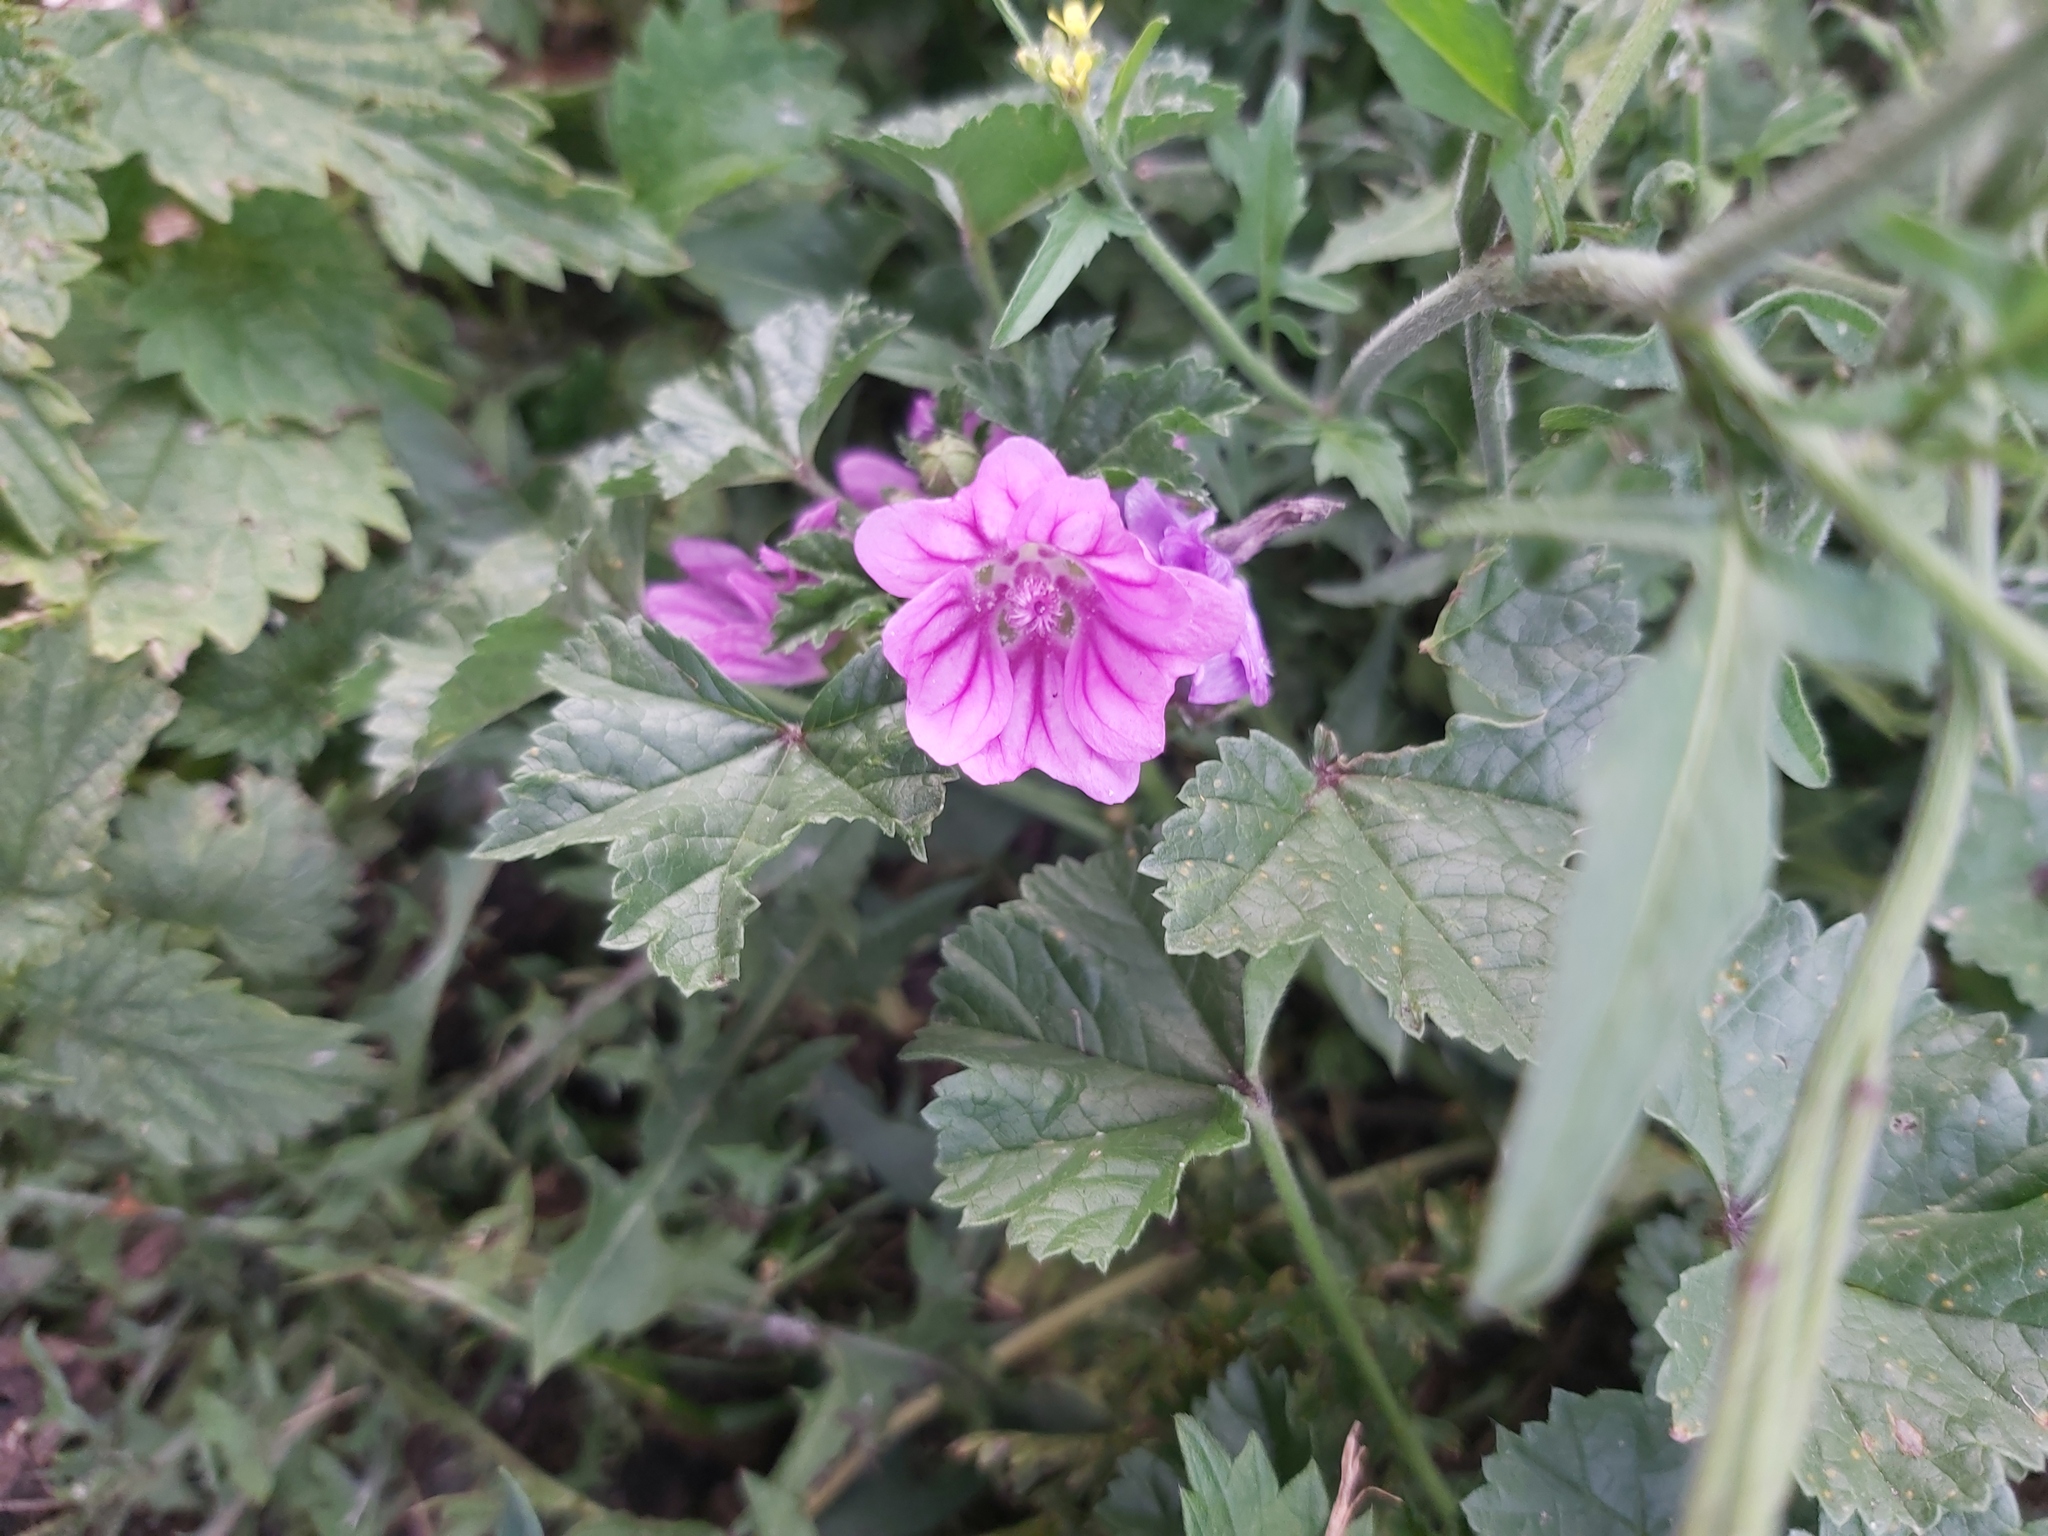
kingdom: Plantae
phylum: Tracheophyta
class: Magnoliopsida
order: Malvales
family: Malvaceae
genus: Malva
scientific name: Malva sylvestris
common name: Common mallow
